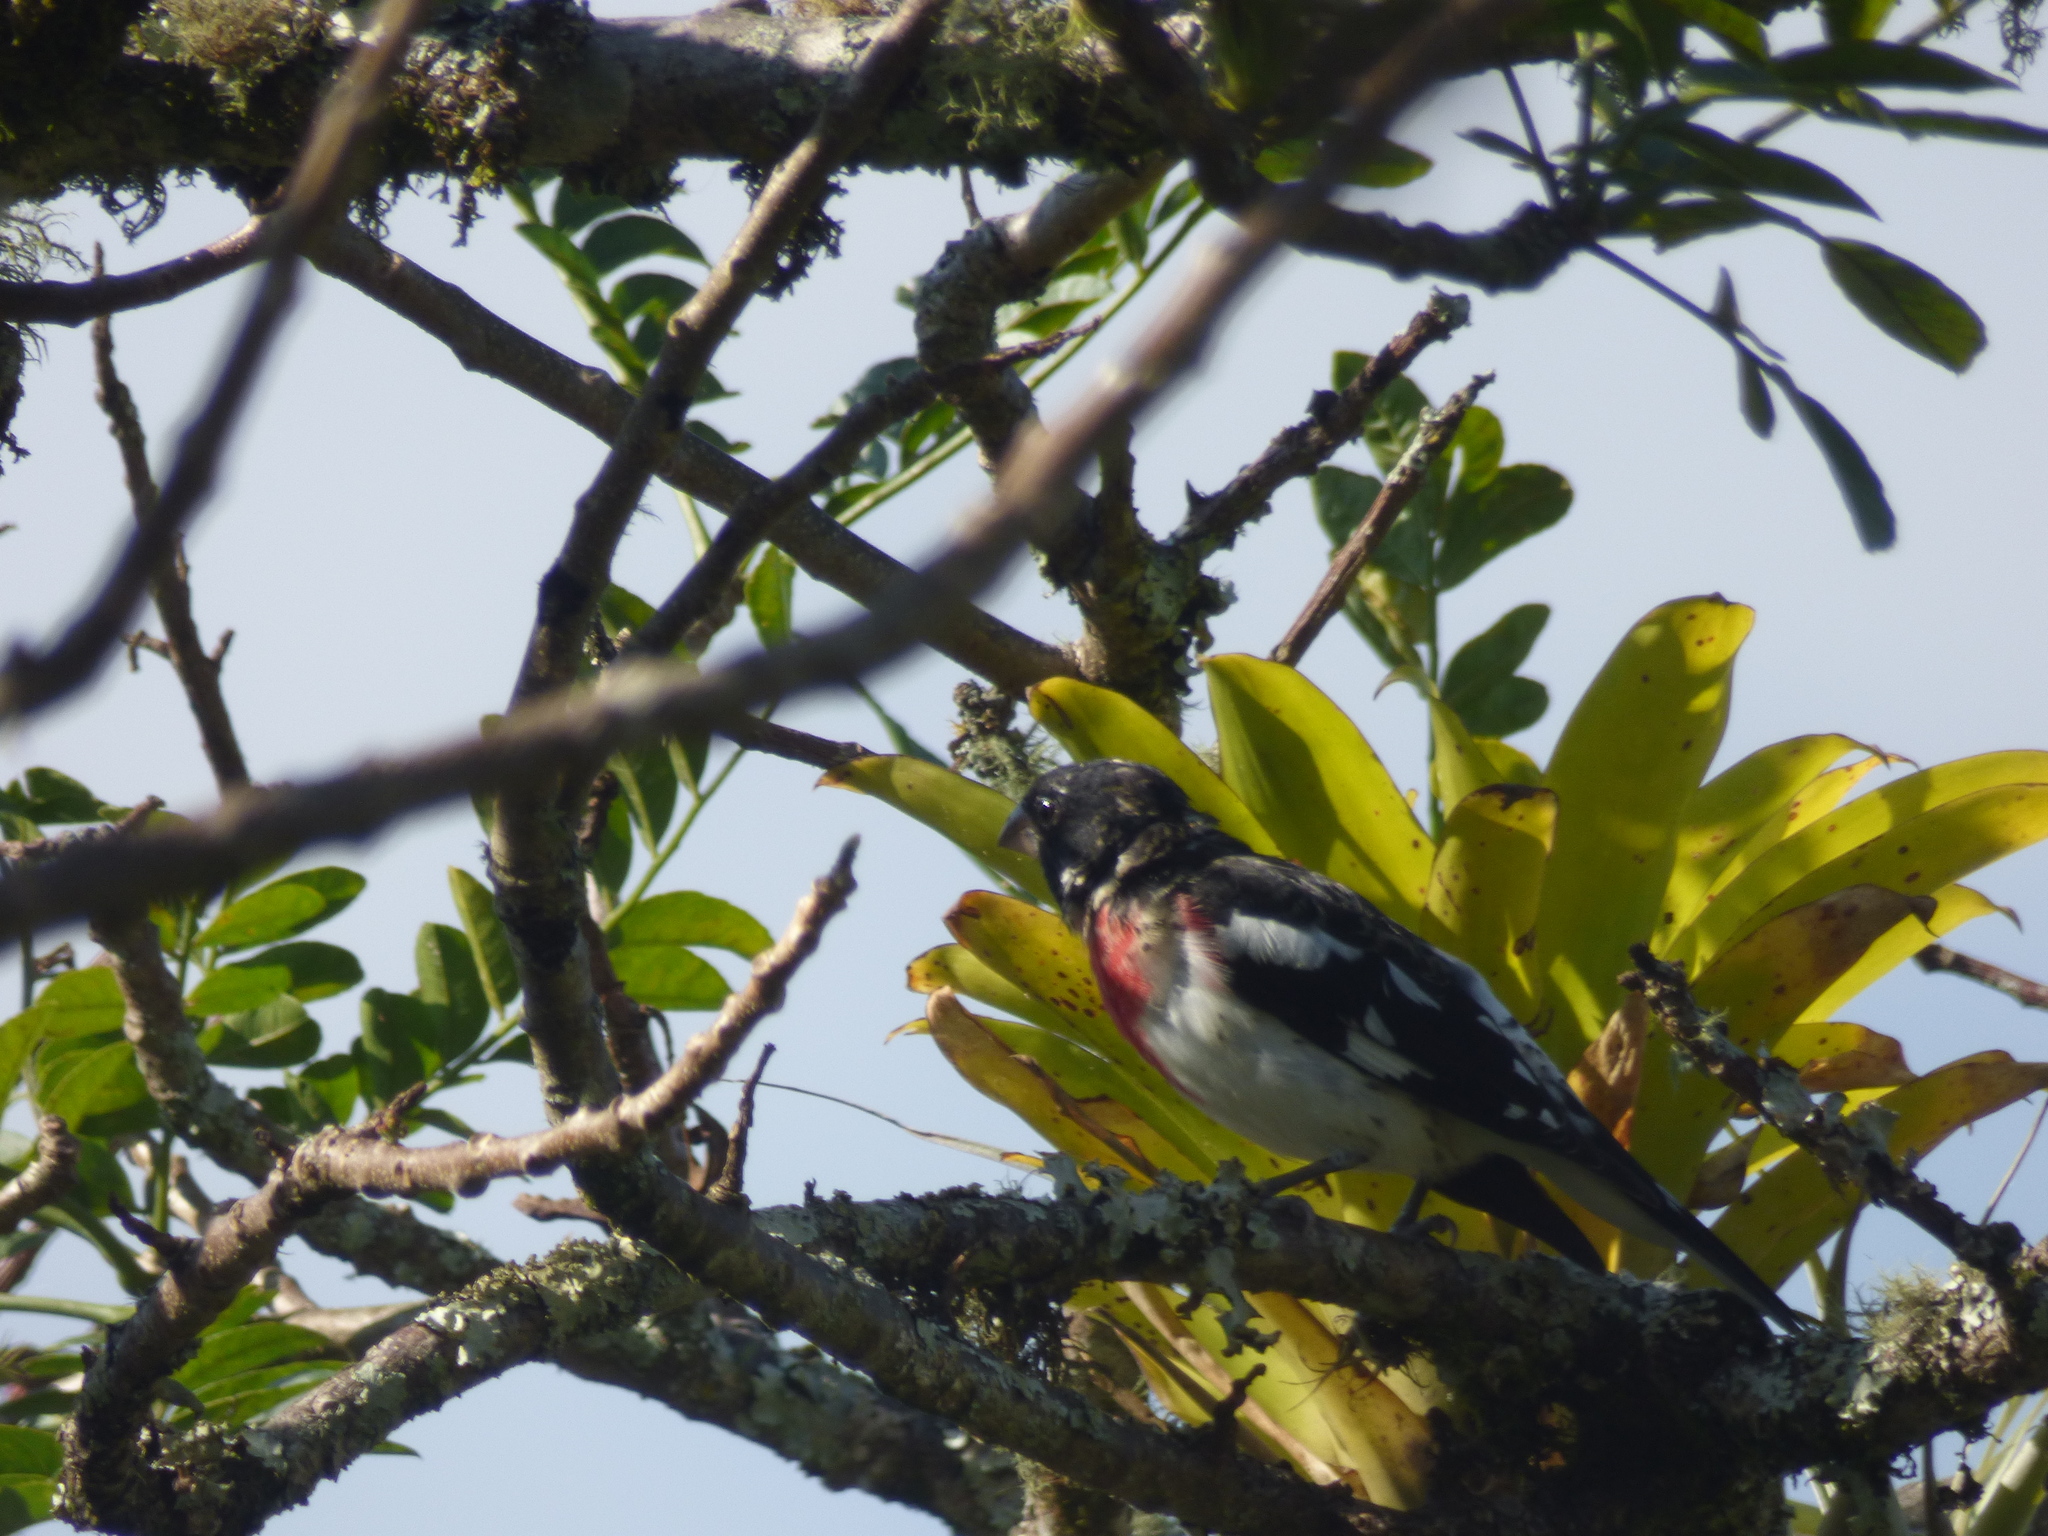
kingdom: Animalia
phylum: Chordata
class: Aves
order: Passeriformes
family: Cardinalidae
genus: Pheucticus
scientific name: Pheucticus ludovicianus
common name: Rose-breasted grosbeak
